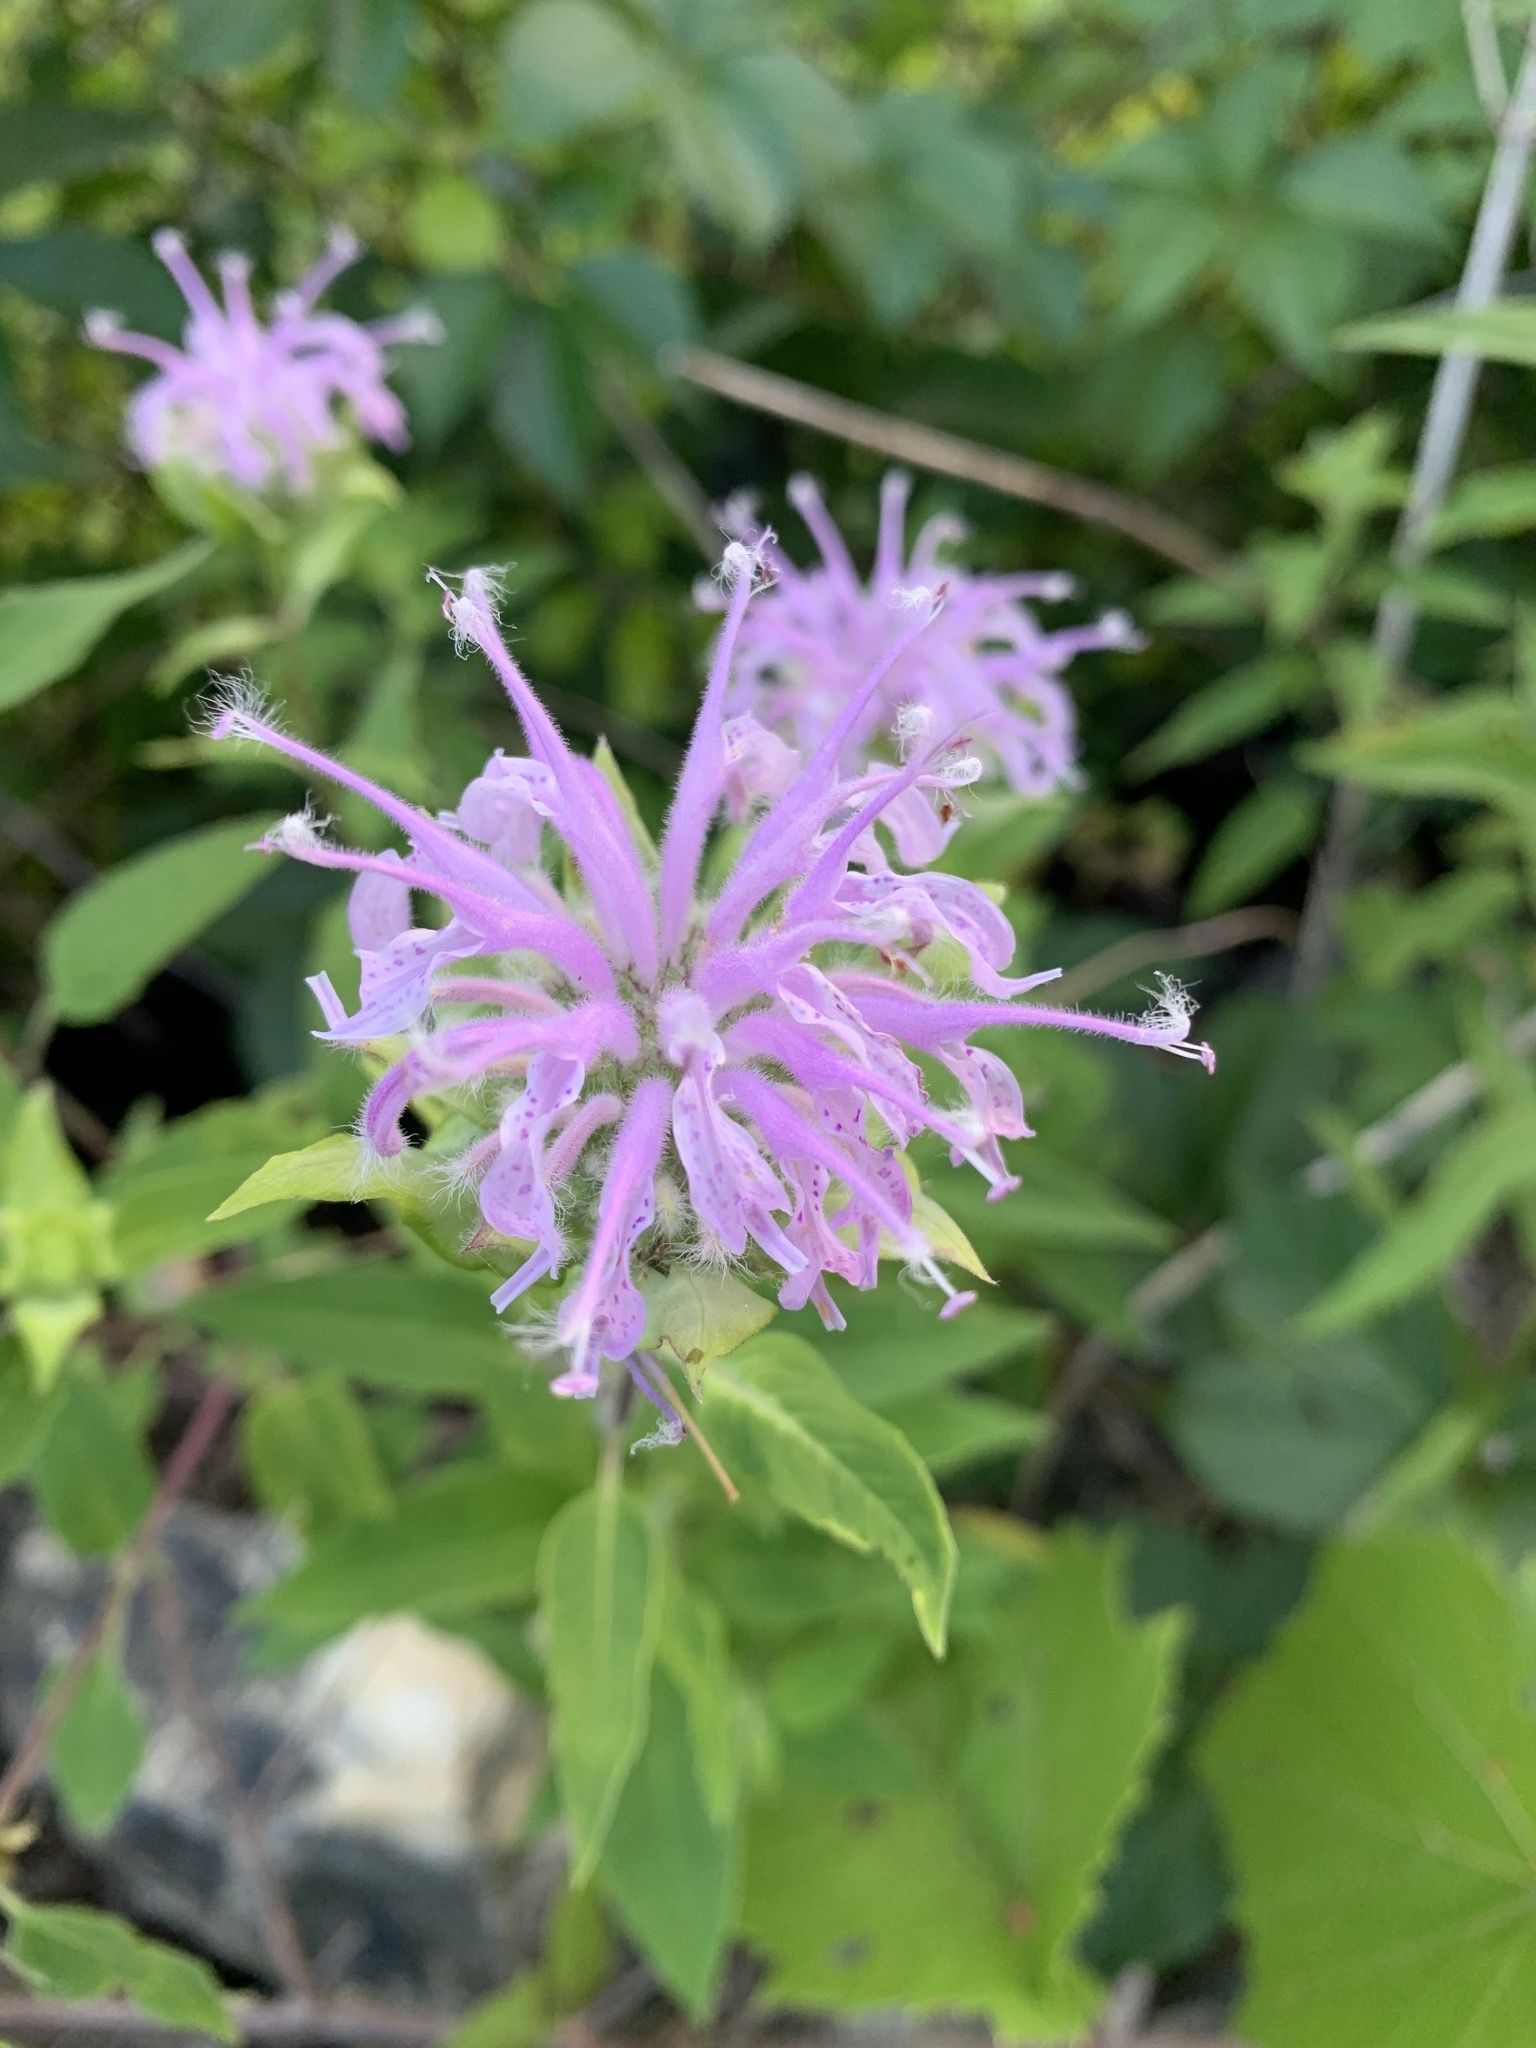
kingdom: Plantae
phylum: Tracheophyta
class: Magnoliopsida
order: Lamiales
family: Lamiaceae
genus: Monarda
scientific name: Monarda fistulosa
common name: Purple beebalm
